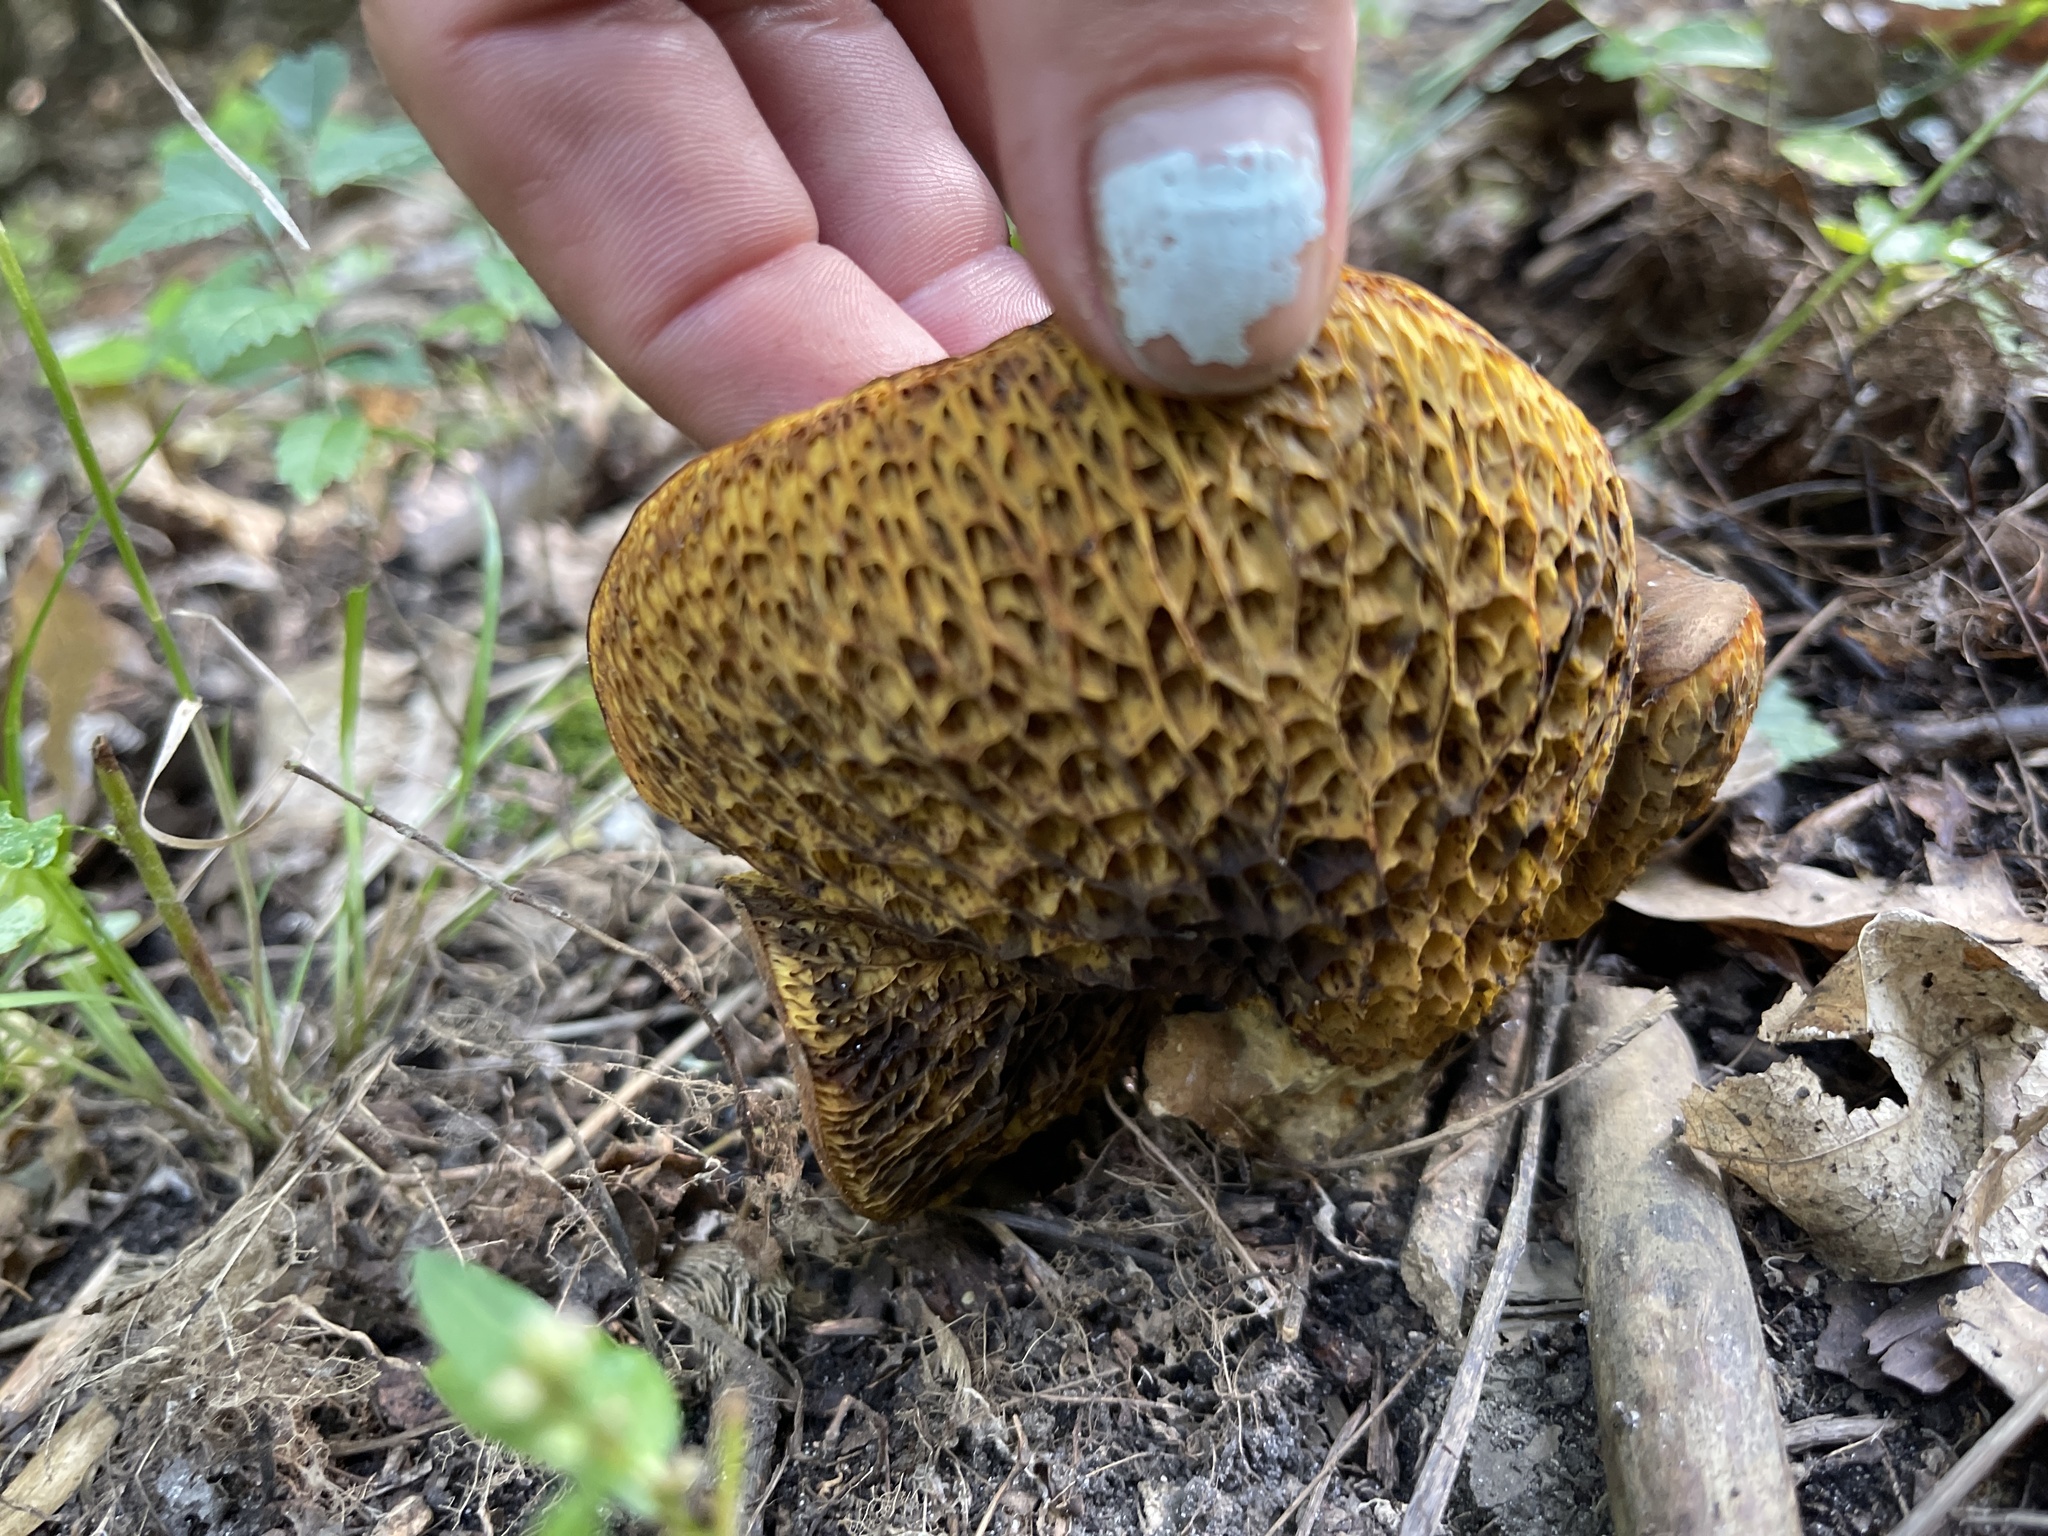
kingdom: Fungi
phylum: Basidiomycota
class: Agaricomycetes
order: Boletales
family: Boletinellaceae
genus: Boletinellus
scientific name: Boletinellus merulioides
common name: Ash tree bolete
